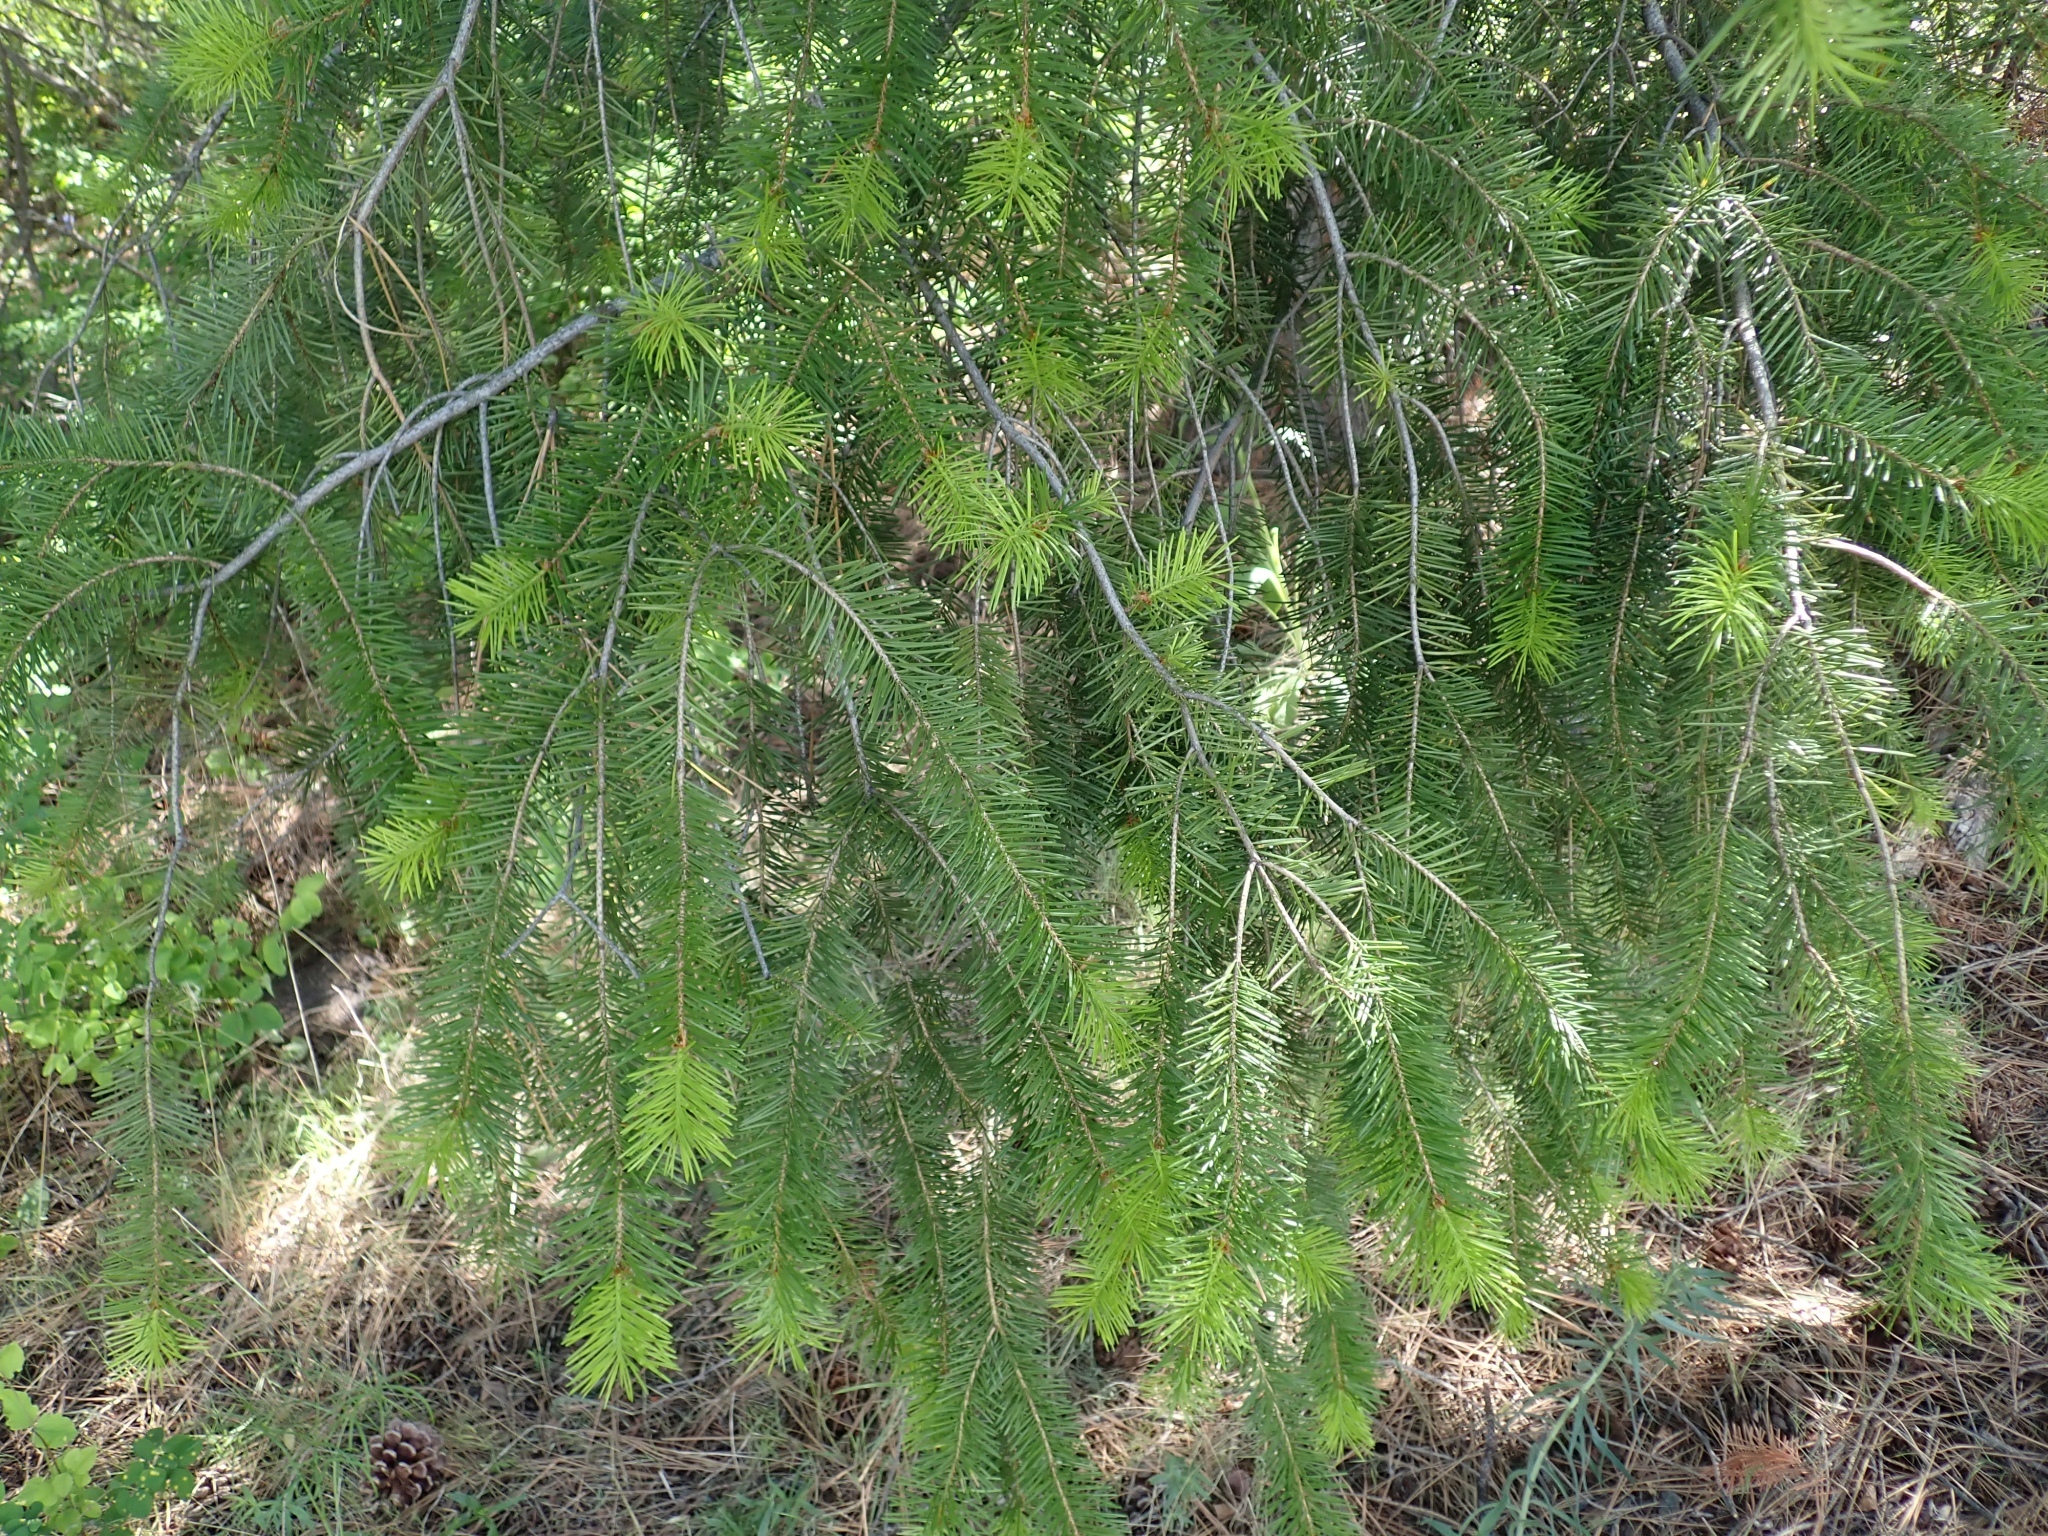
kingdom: Plantae
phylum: Tracheophyta
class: Pinopsida
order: Pinales
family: Pinaceae
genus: Pseudotsuga
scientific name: Pseudotsuga menziesii
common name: Douglas fir
